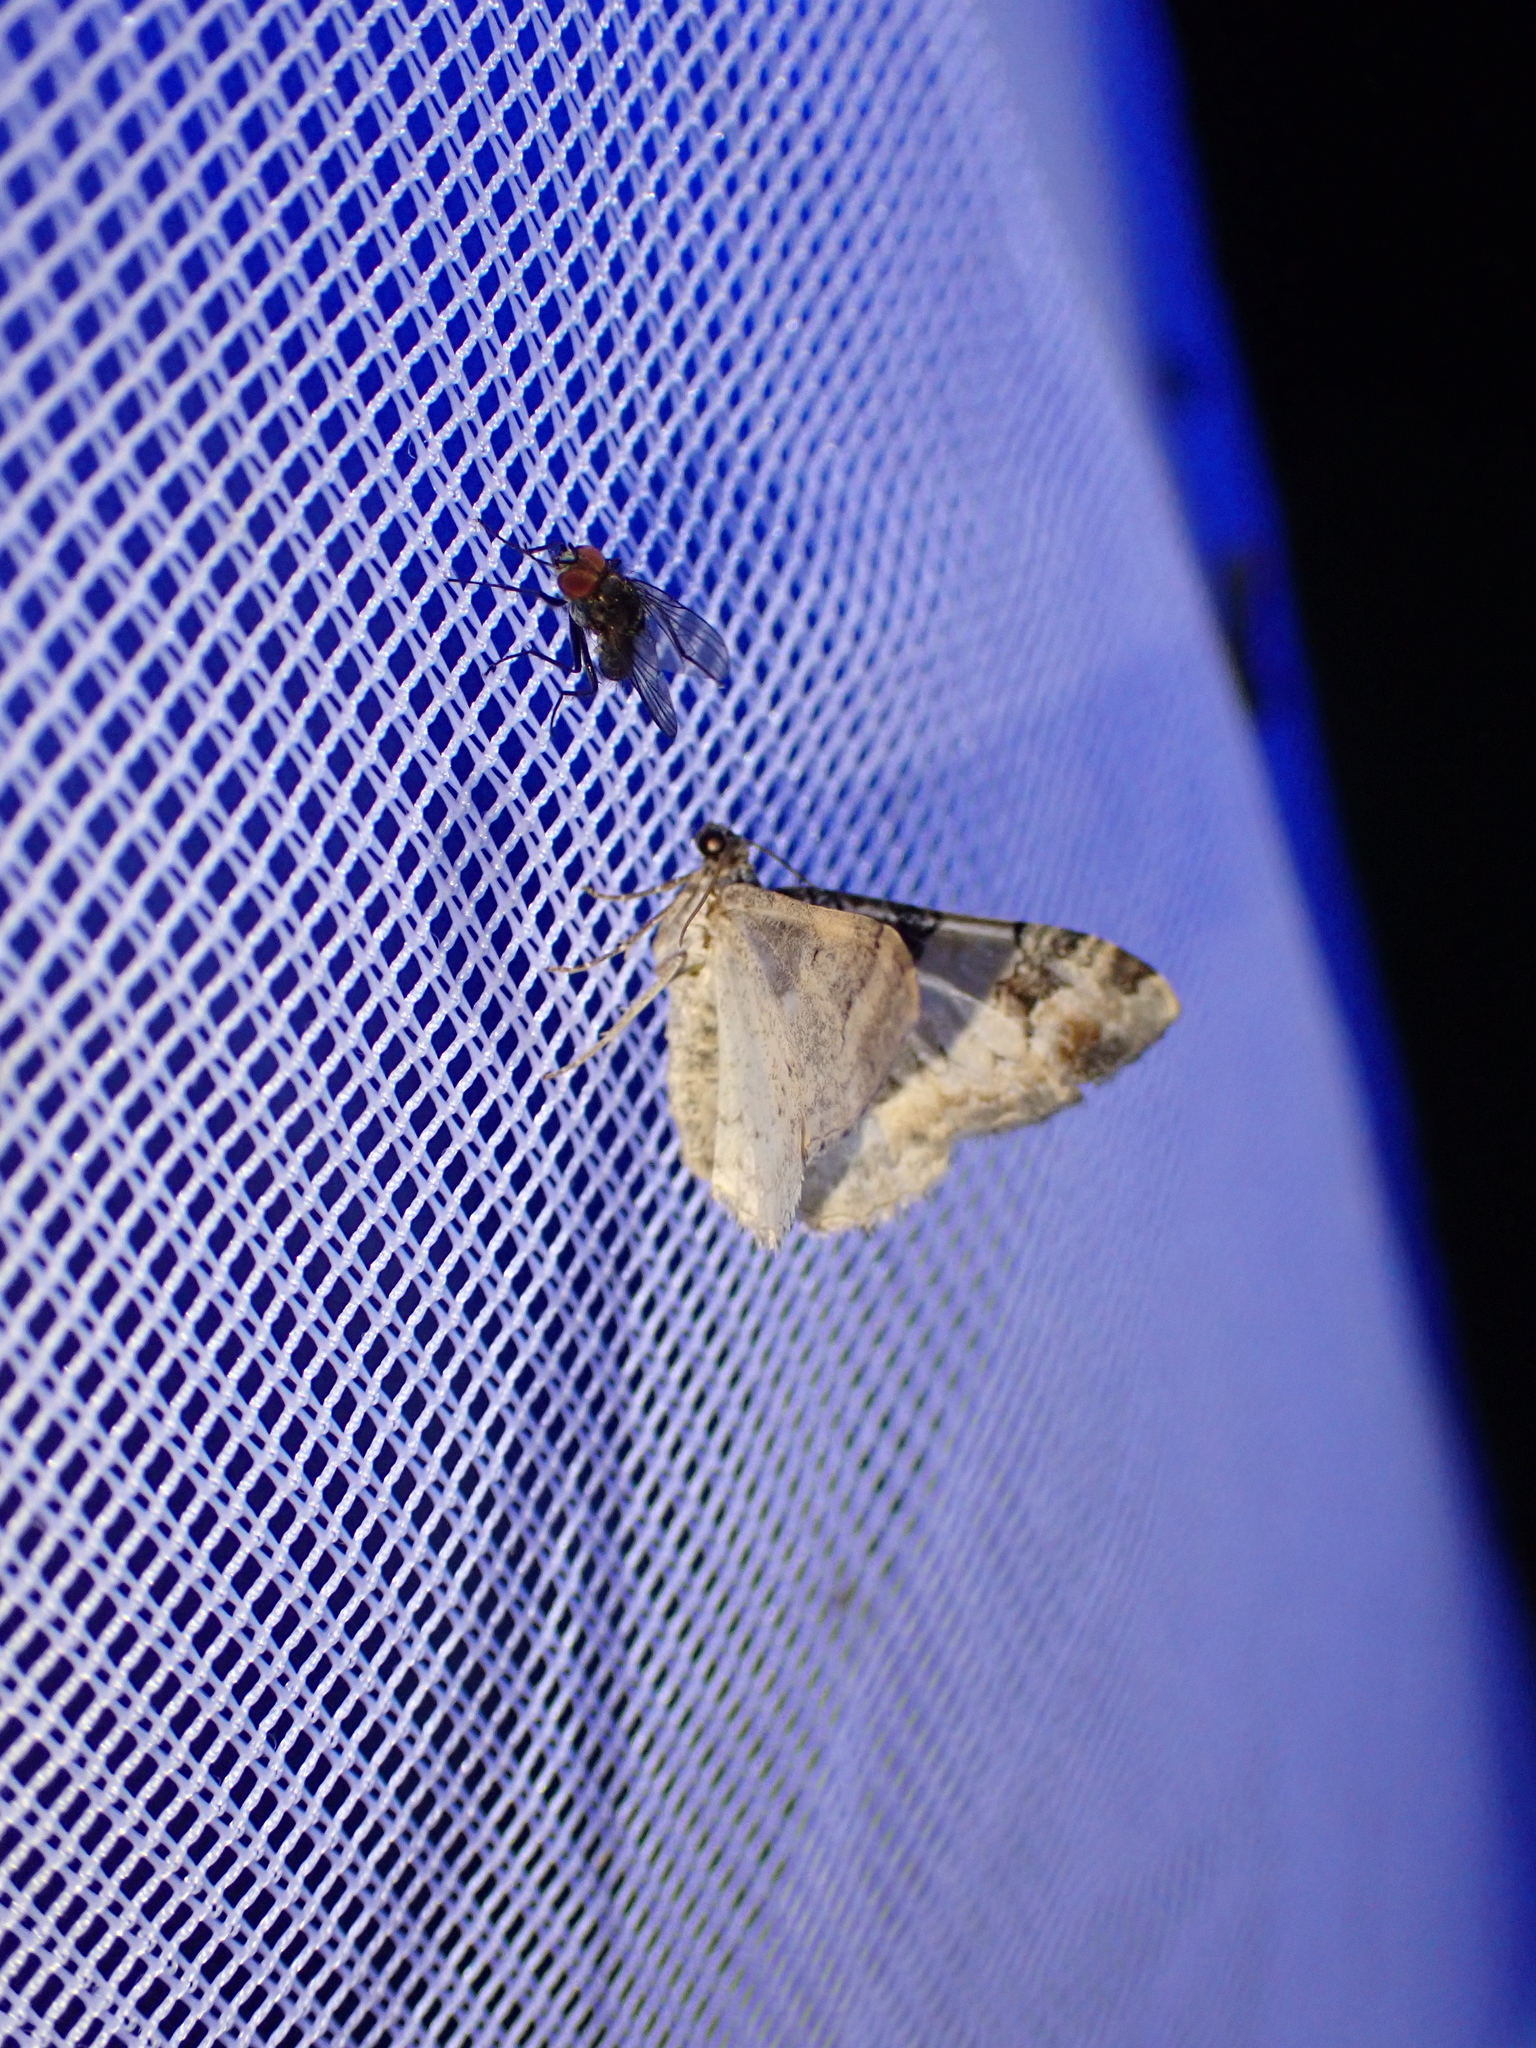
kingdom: Animalia
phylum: Arthropoda
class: Insecta
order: Lepidoptera
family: Geometridae
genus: Catarhoe
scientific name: Catarhoe cuculata
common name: Royal mantle
